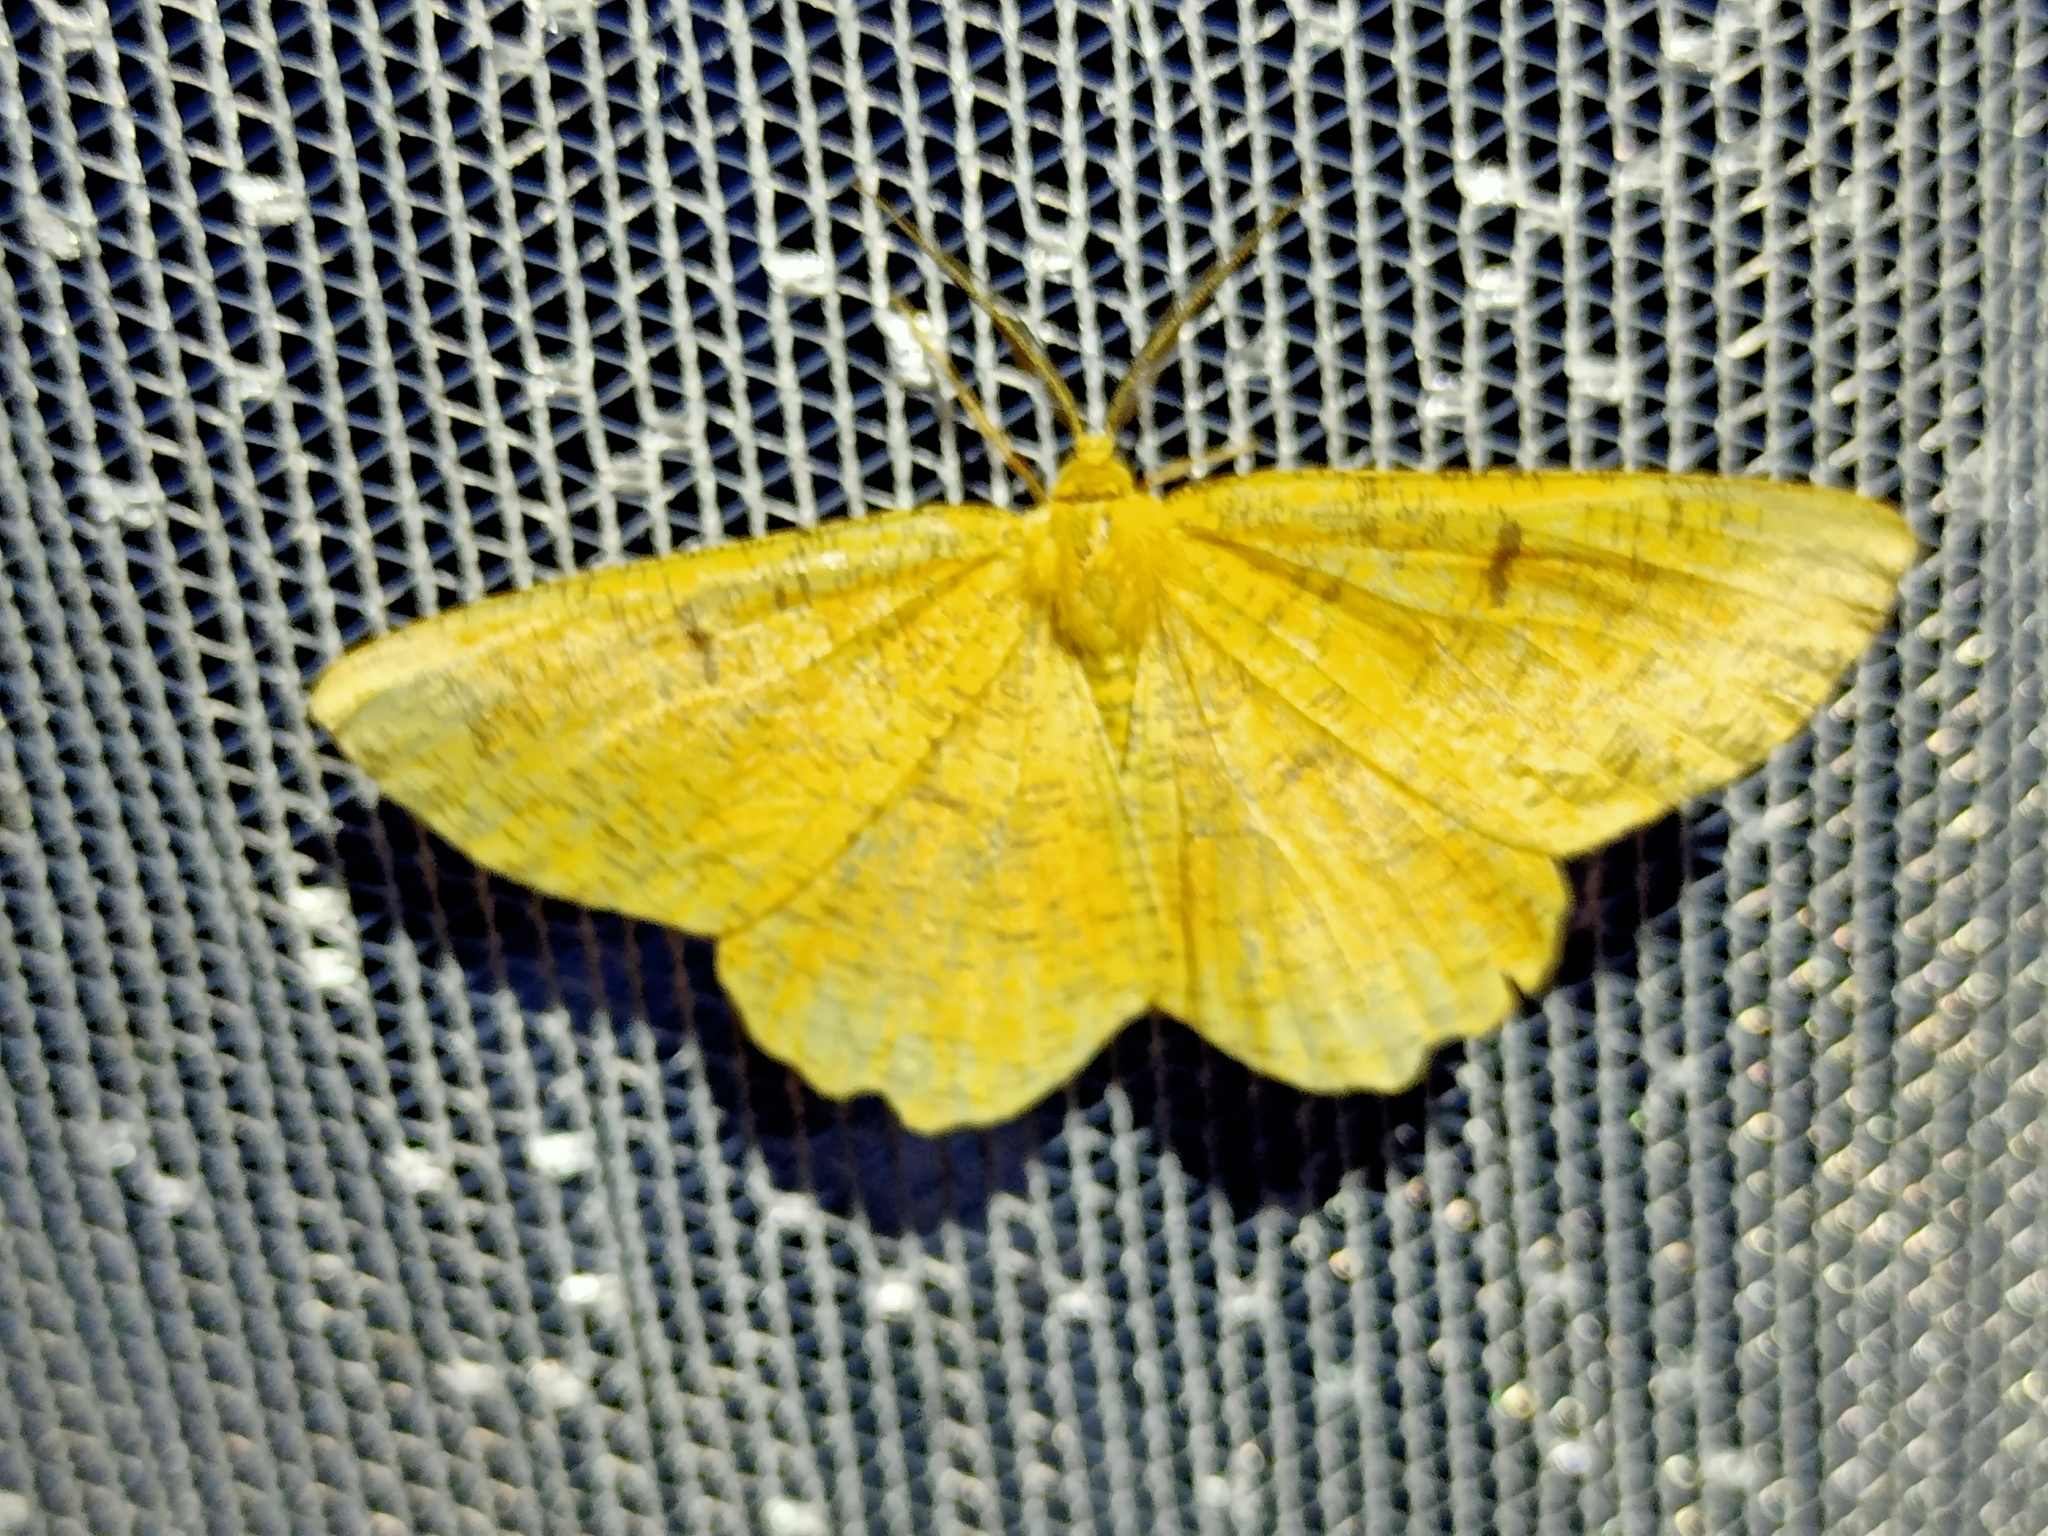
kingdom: Animalia
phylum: Arthropoda
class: Insecta
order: Lepidoptera
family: Geometridae
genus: Angerona
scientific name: Angerona prunaria
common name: Orange moth
